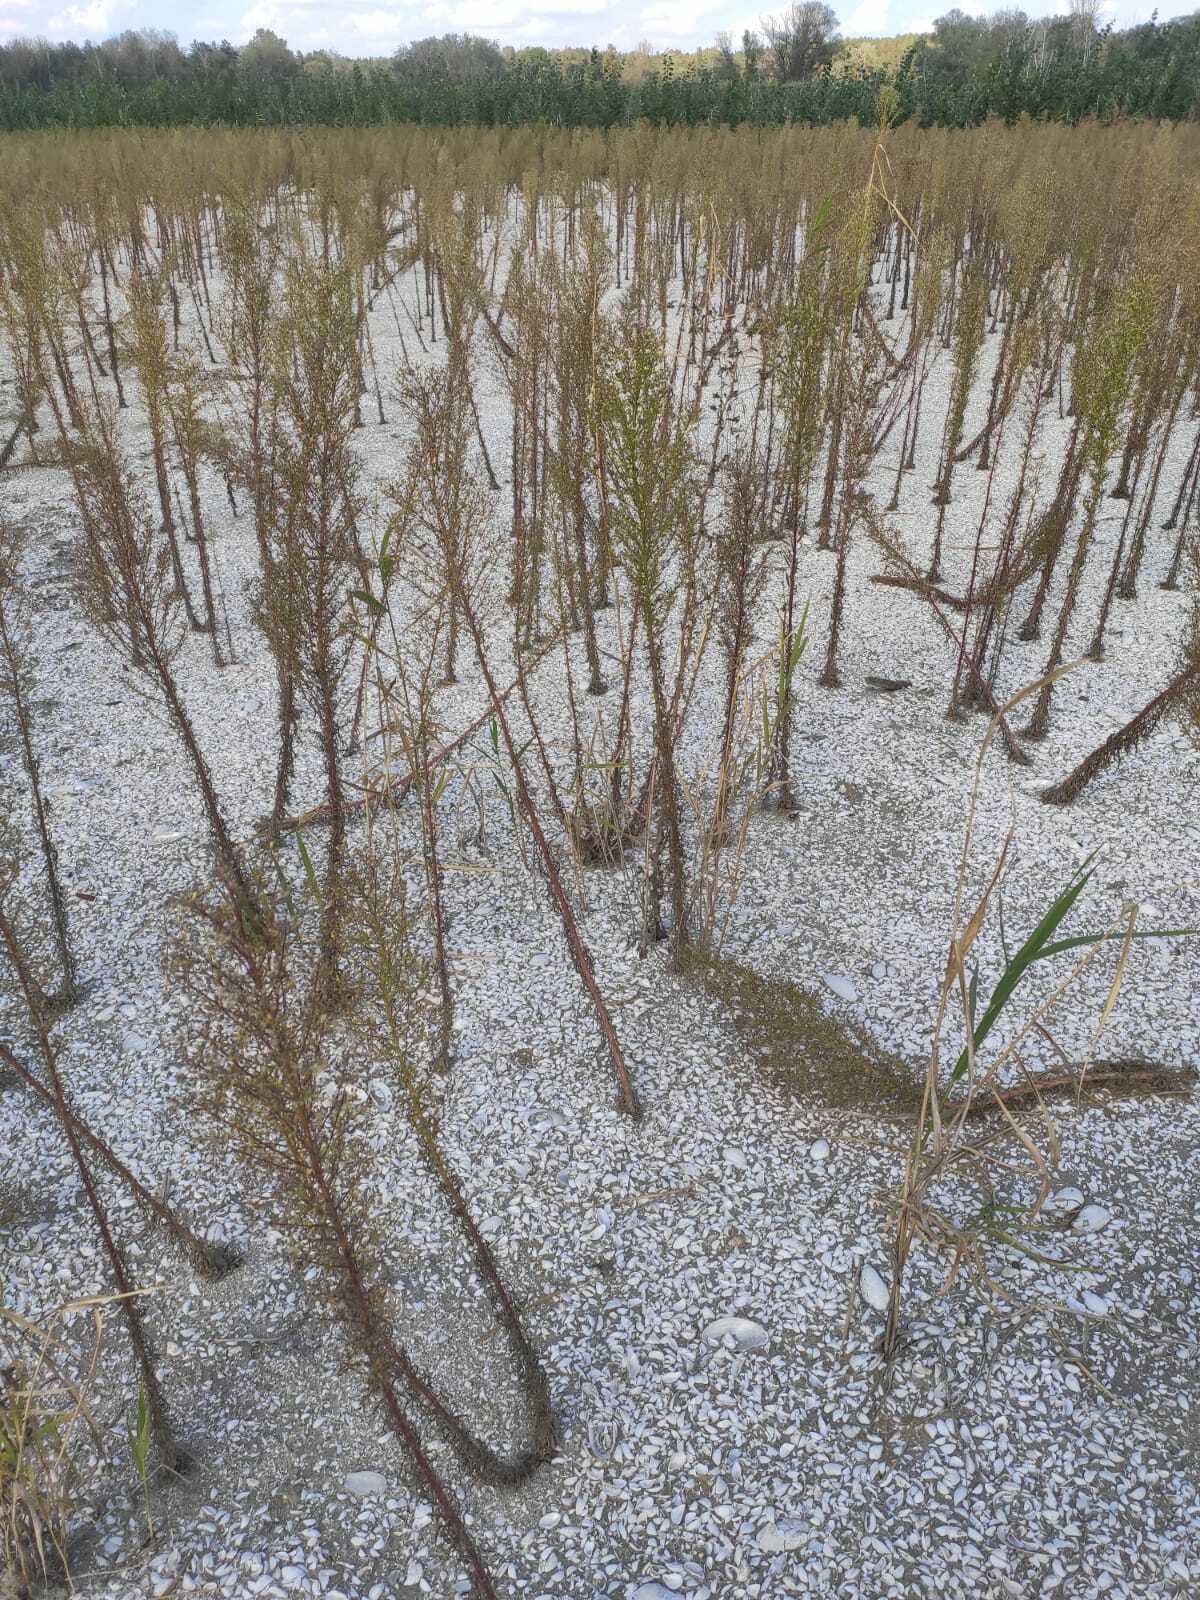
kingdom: Plantae
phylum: Tracheophyta
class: Magnoliopsida
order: Asterales
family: Asteraceae
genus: Erigeron
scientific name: Erigeron canadensis
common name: Canadian fleabane
